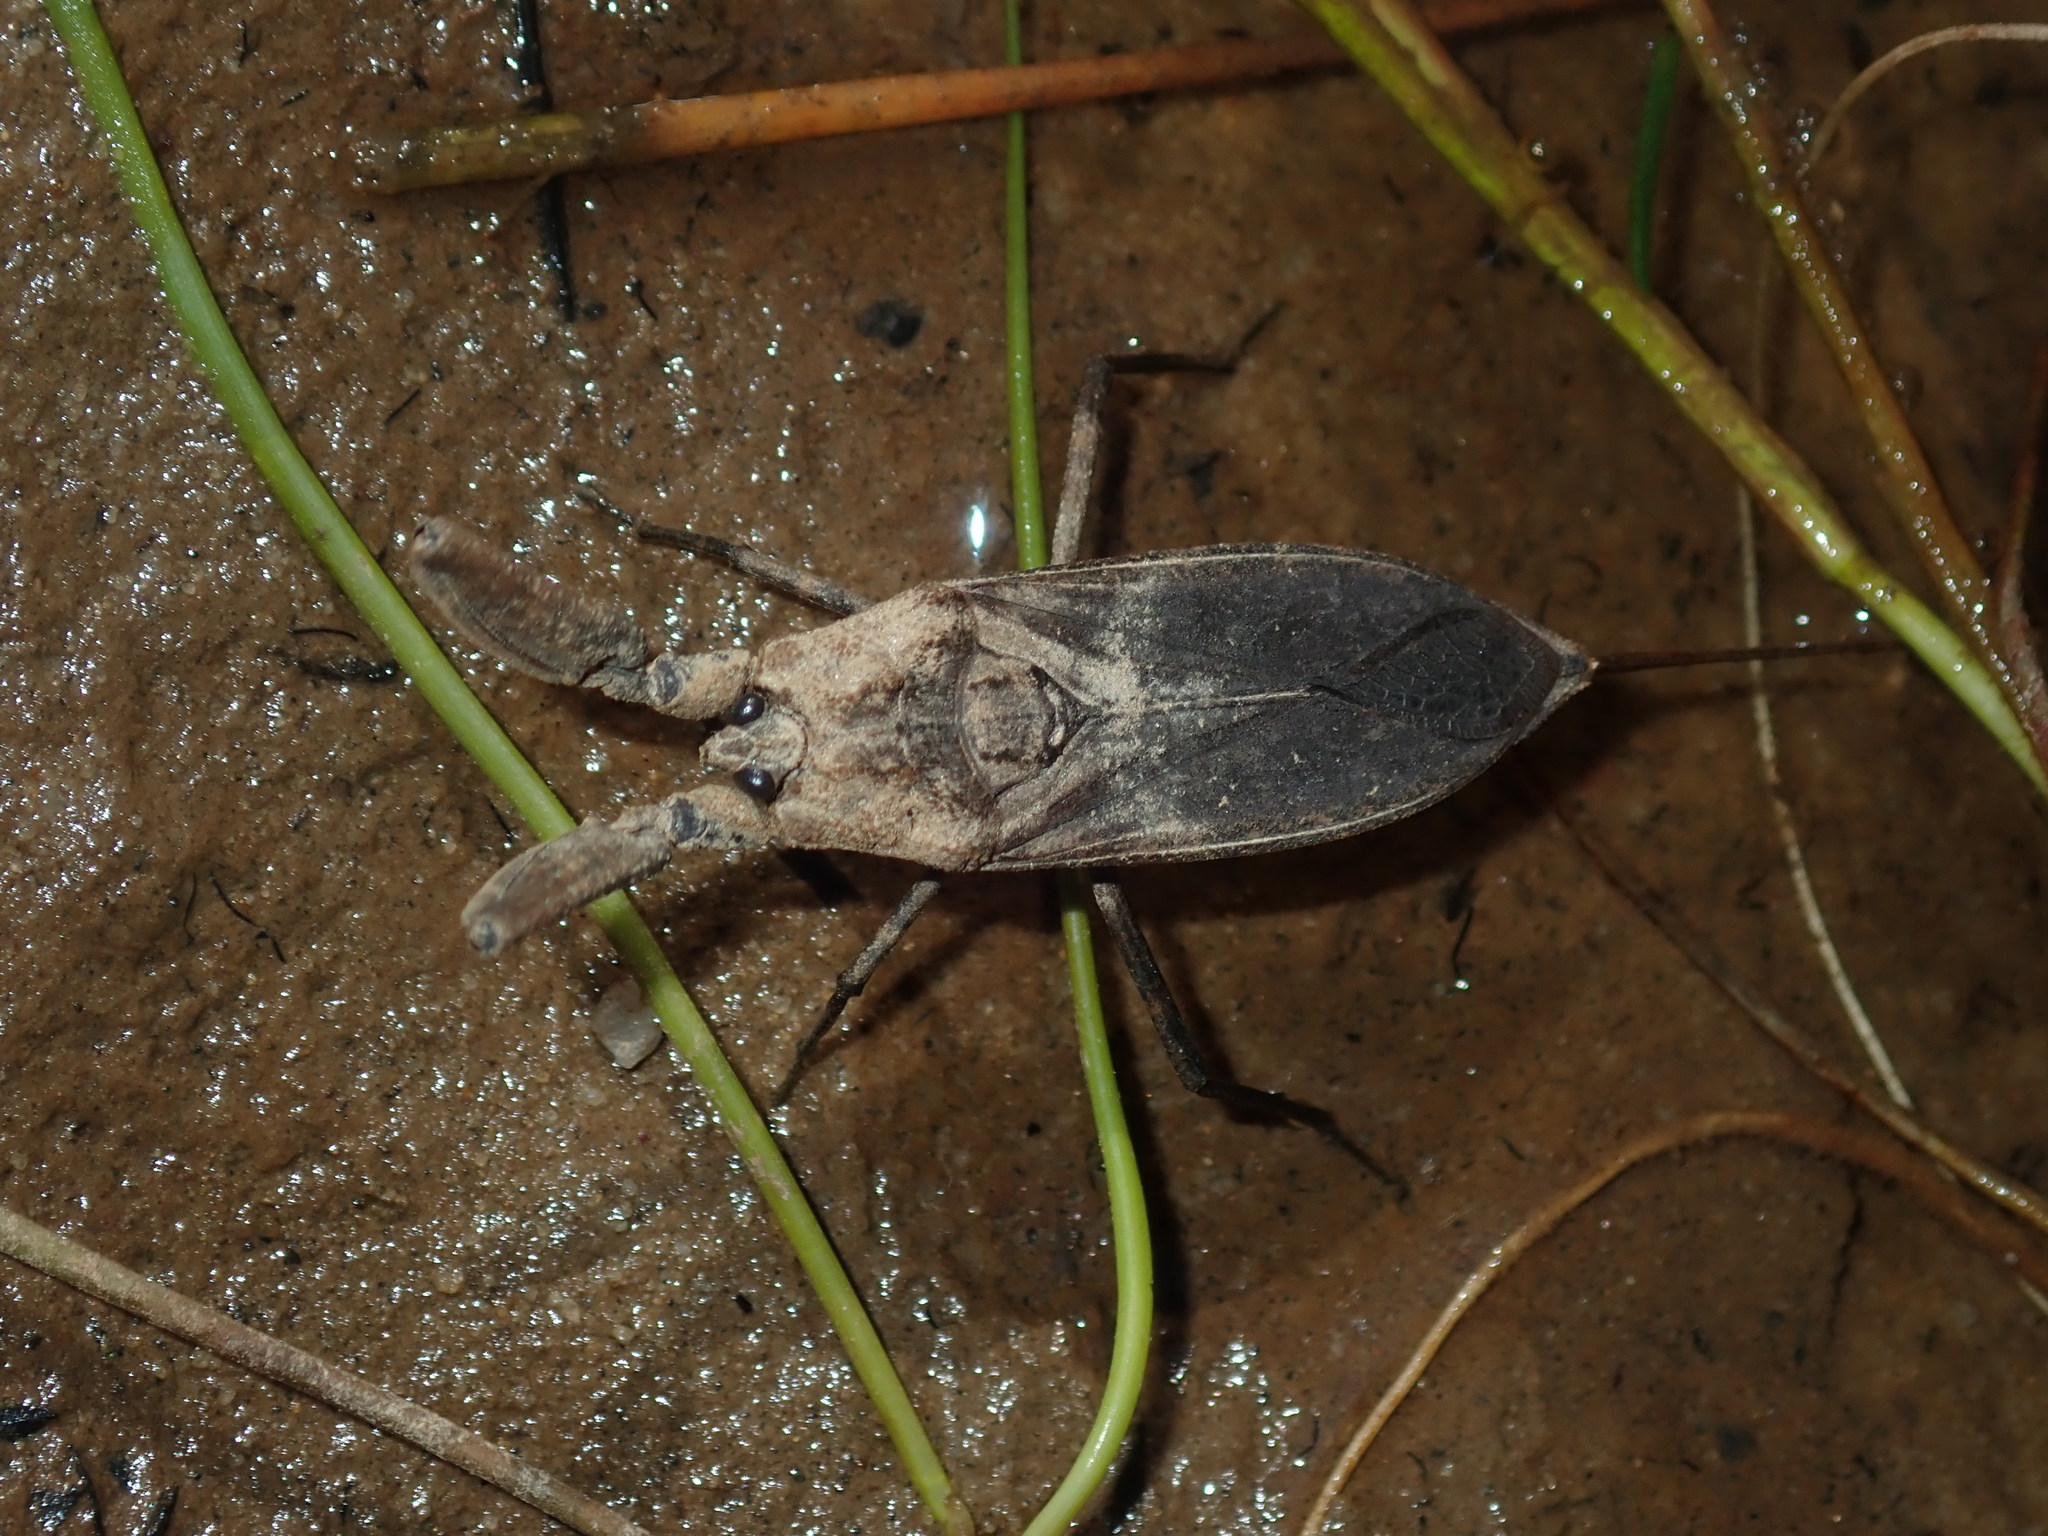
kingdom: Animalia
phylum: Arthropoda
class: Insecta
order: Hemiptera
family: Nepidae
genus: Laccotrephes
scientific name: Laccotrephes tristis
